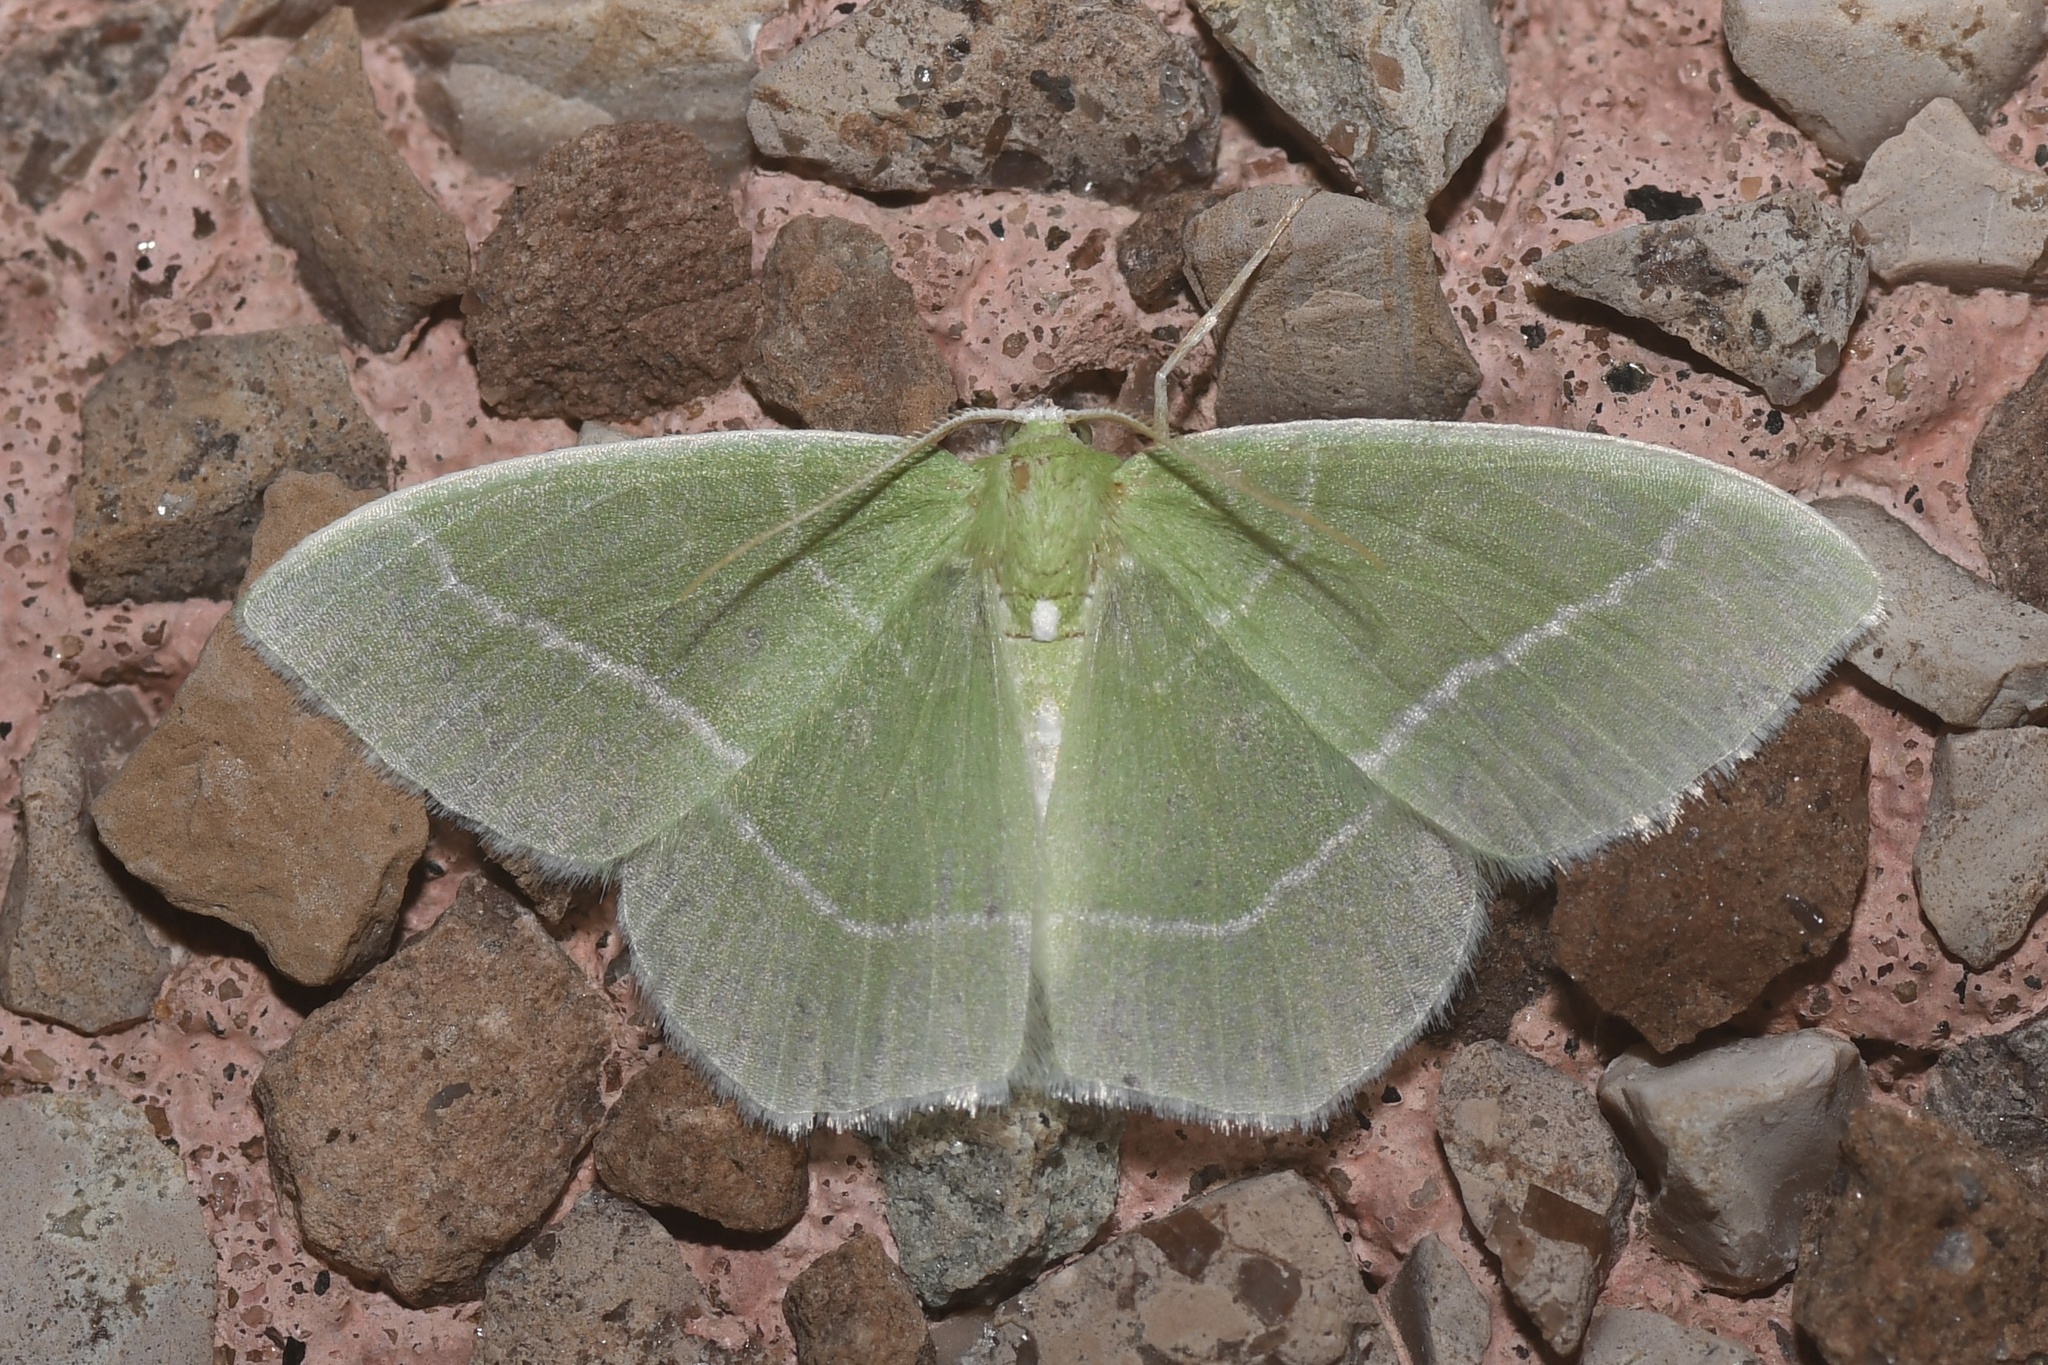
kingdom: Animalia
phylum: Arthropoda
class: Insecta
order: Lepidoptera
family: Geometridae
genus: Nemoria
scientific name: Nemoria mimosaria
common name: White-fringed emerald
